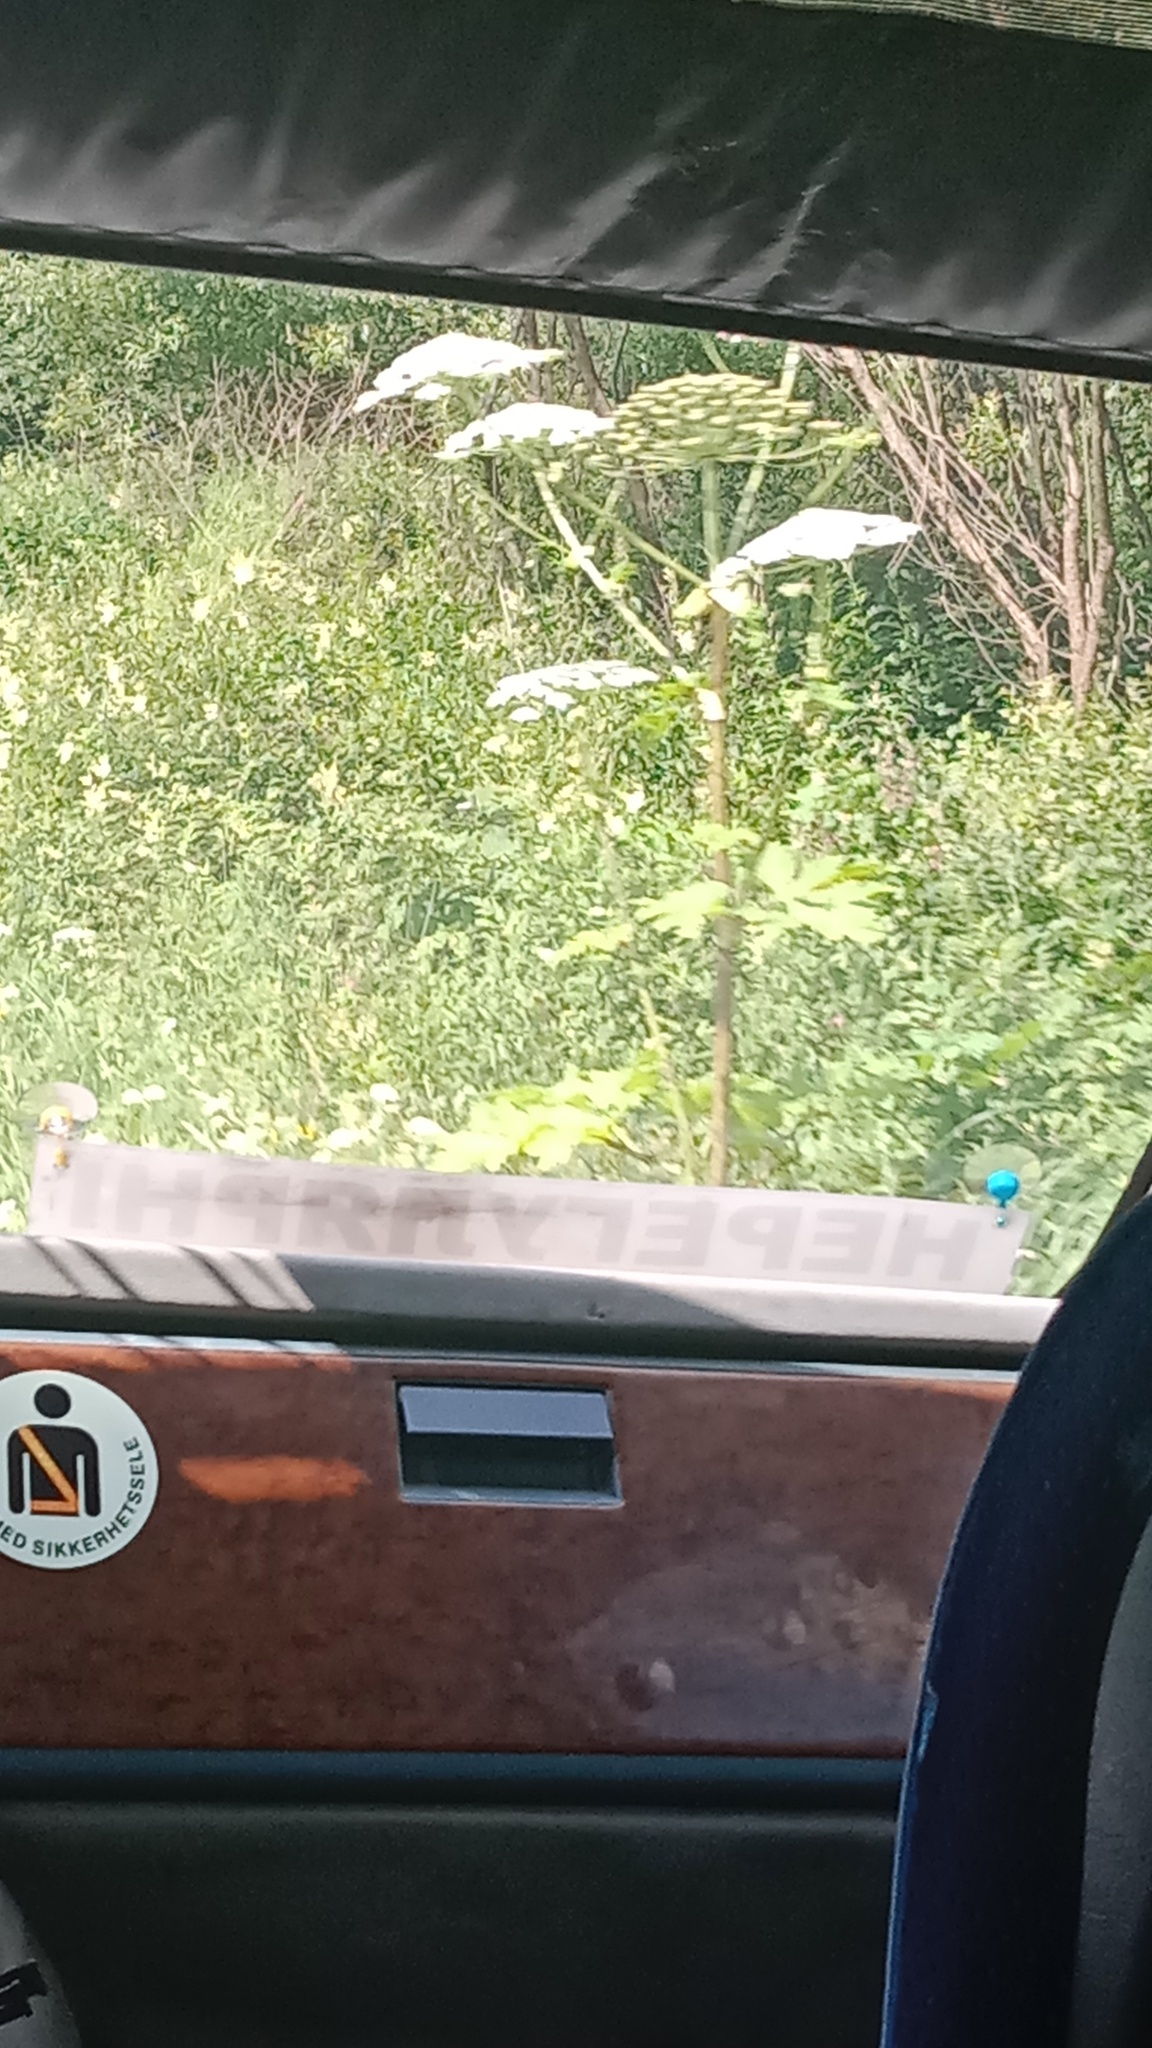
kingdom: Plantae
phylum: Tracheophyta
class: Magnoliopsida
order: Apiales
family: Apiaceae
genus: Heracleum
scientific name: Heracleum sosnowskyi
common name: Sosnowsky's hogweed
